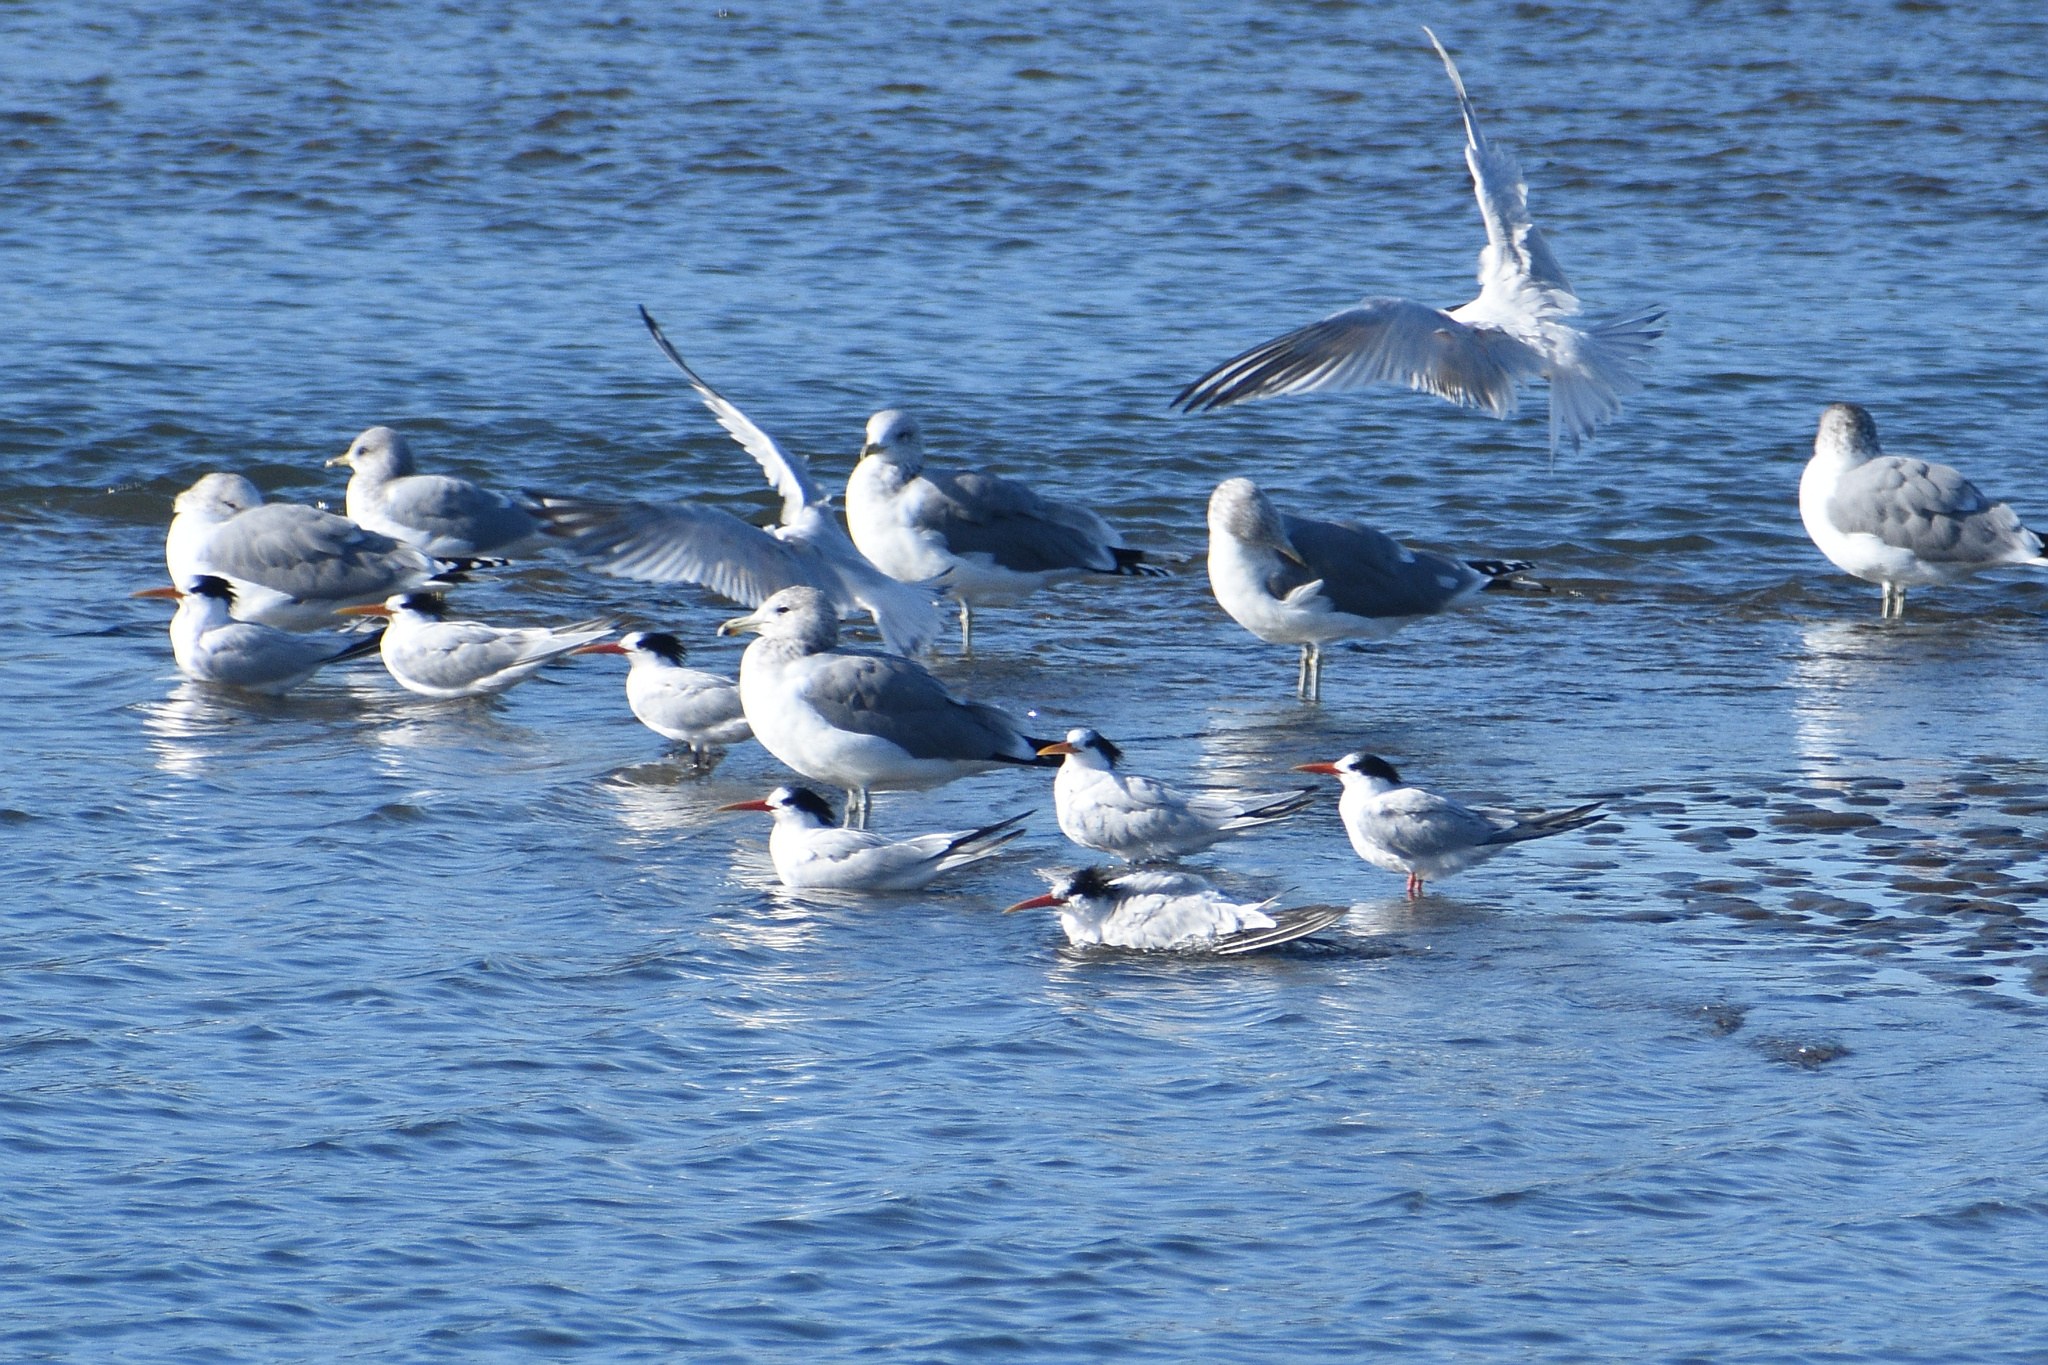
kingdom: Animalia
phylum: Chordata
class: Aves
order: Charadriiformes
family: Laridae
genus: Thalasseus
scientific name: Thalasseus elegans
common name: Elegant tern
